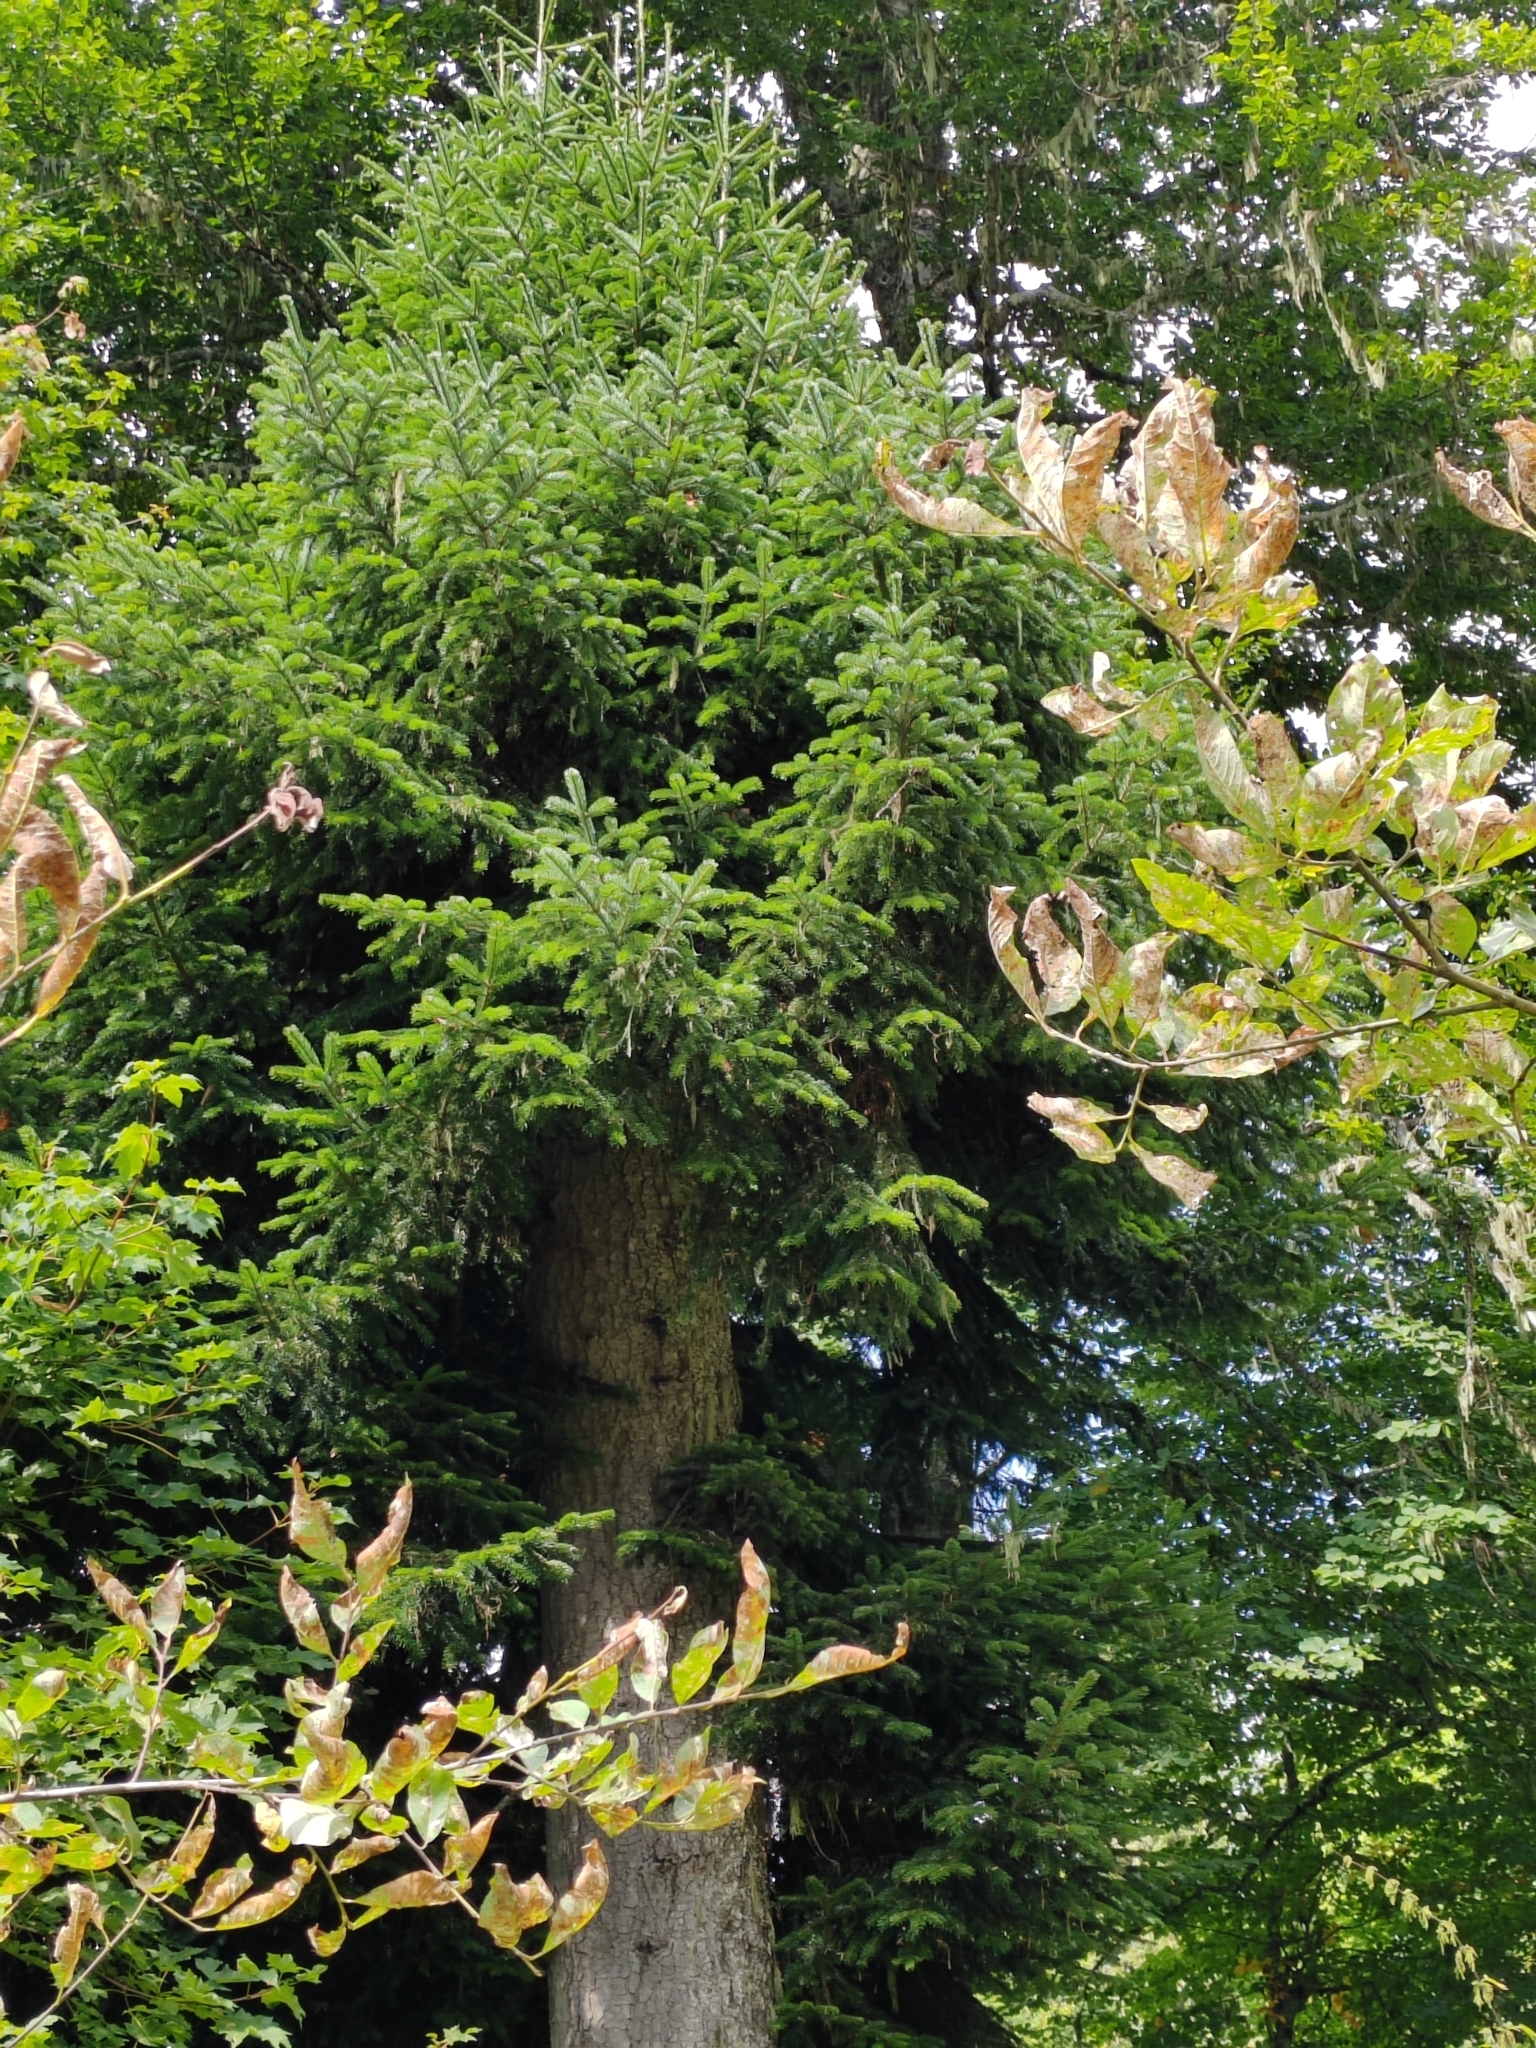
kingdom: Plantae
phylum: Tracheophyta
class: Pinopsida
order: Pinales
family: Pinaceae
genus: Abies
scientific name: Abies nordmanniana
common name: Caucasian fir
